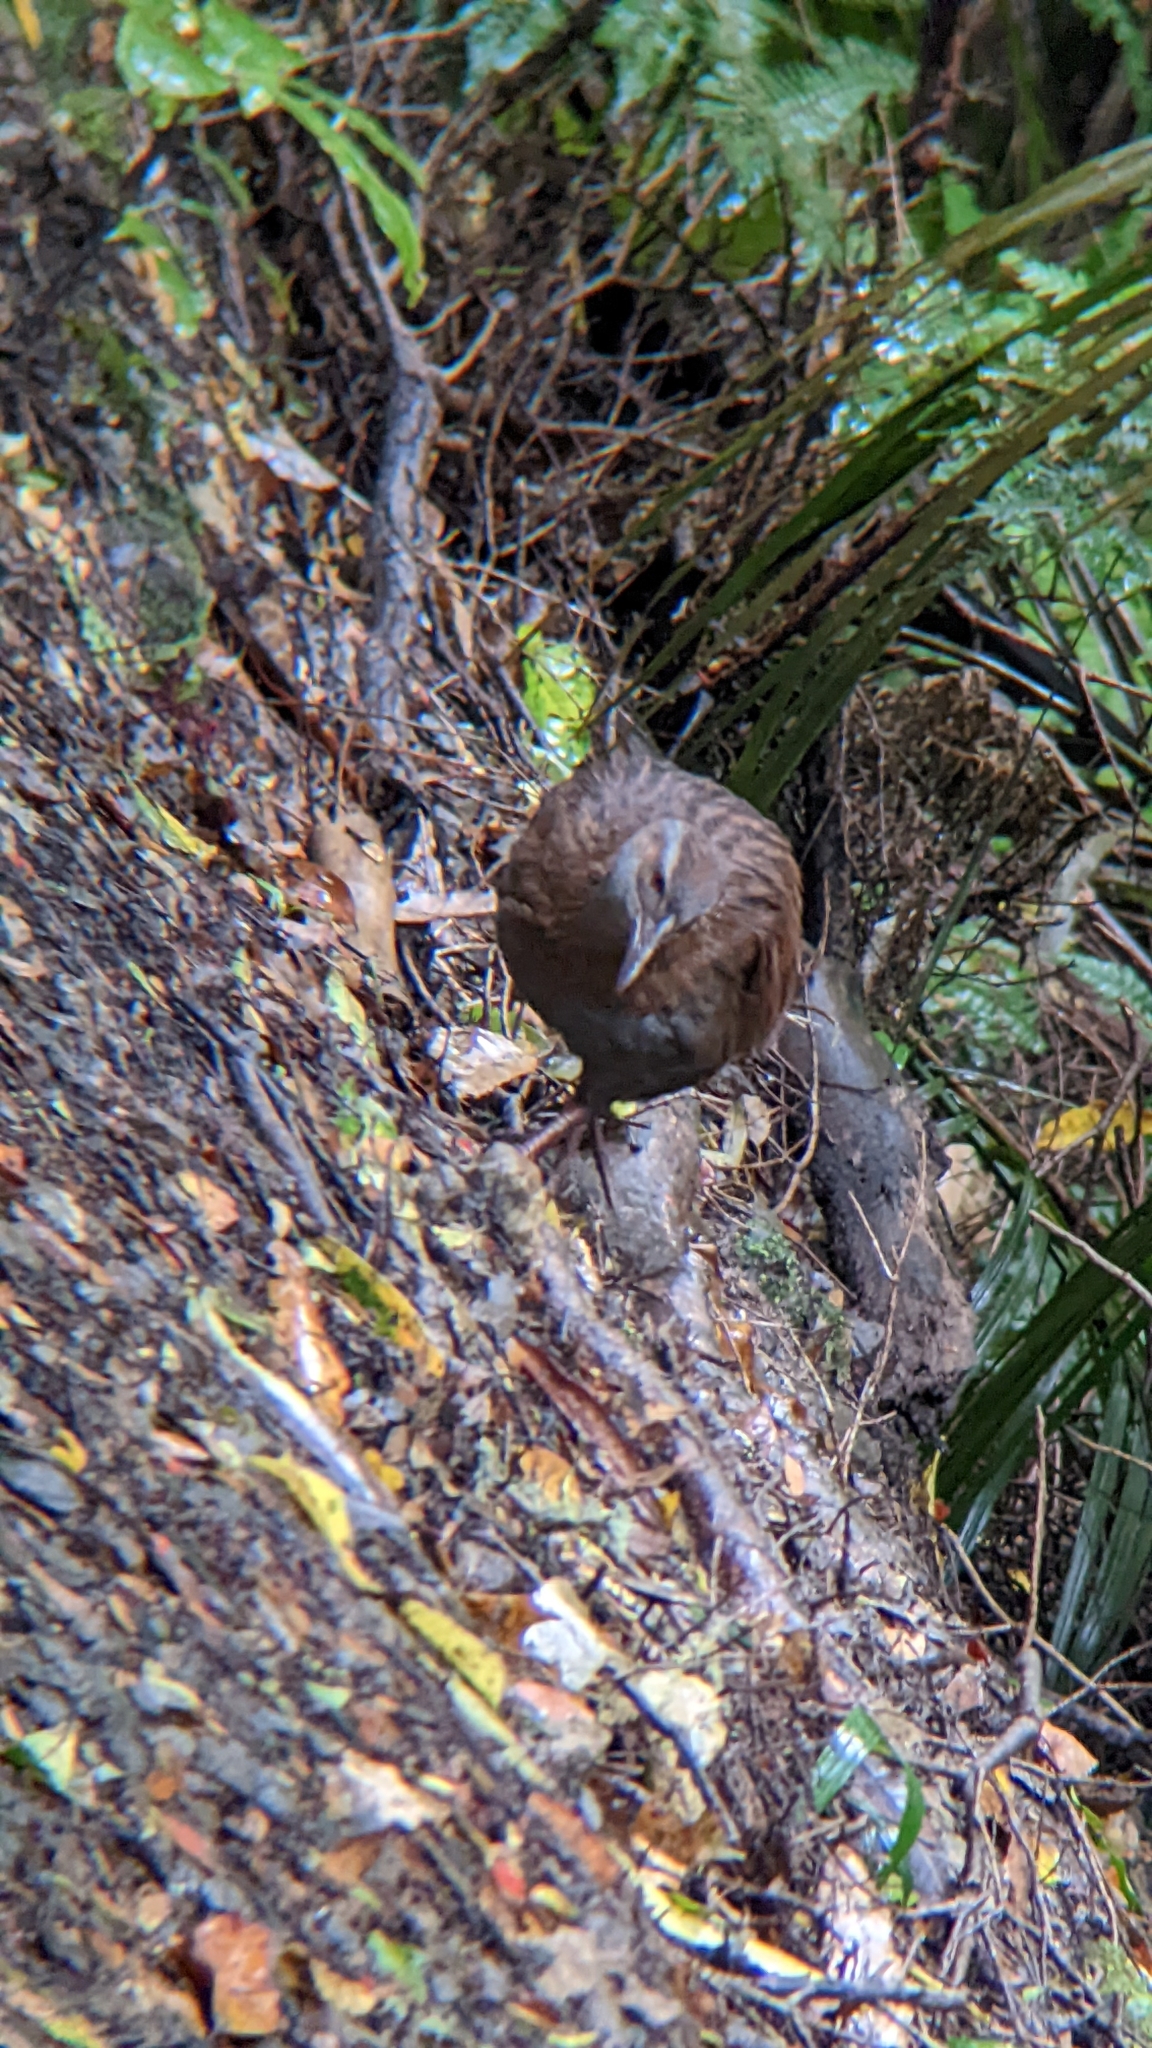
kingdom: Animalia
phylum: Chordata
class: Aves
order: Gruiformes
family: Rallidae
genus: Gallirallus
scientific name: Gallirallus
